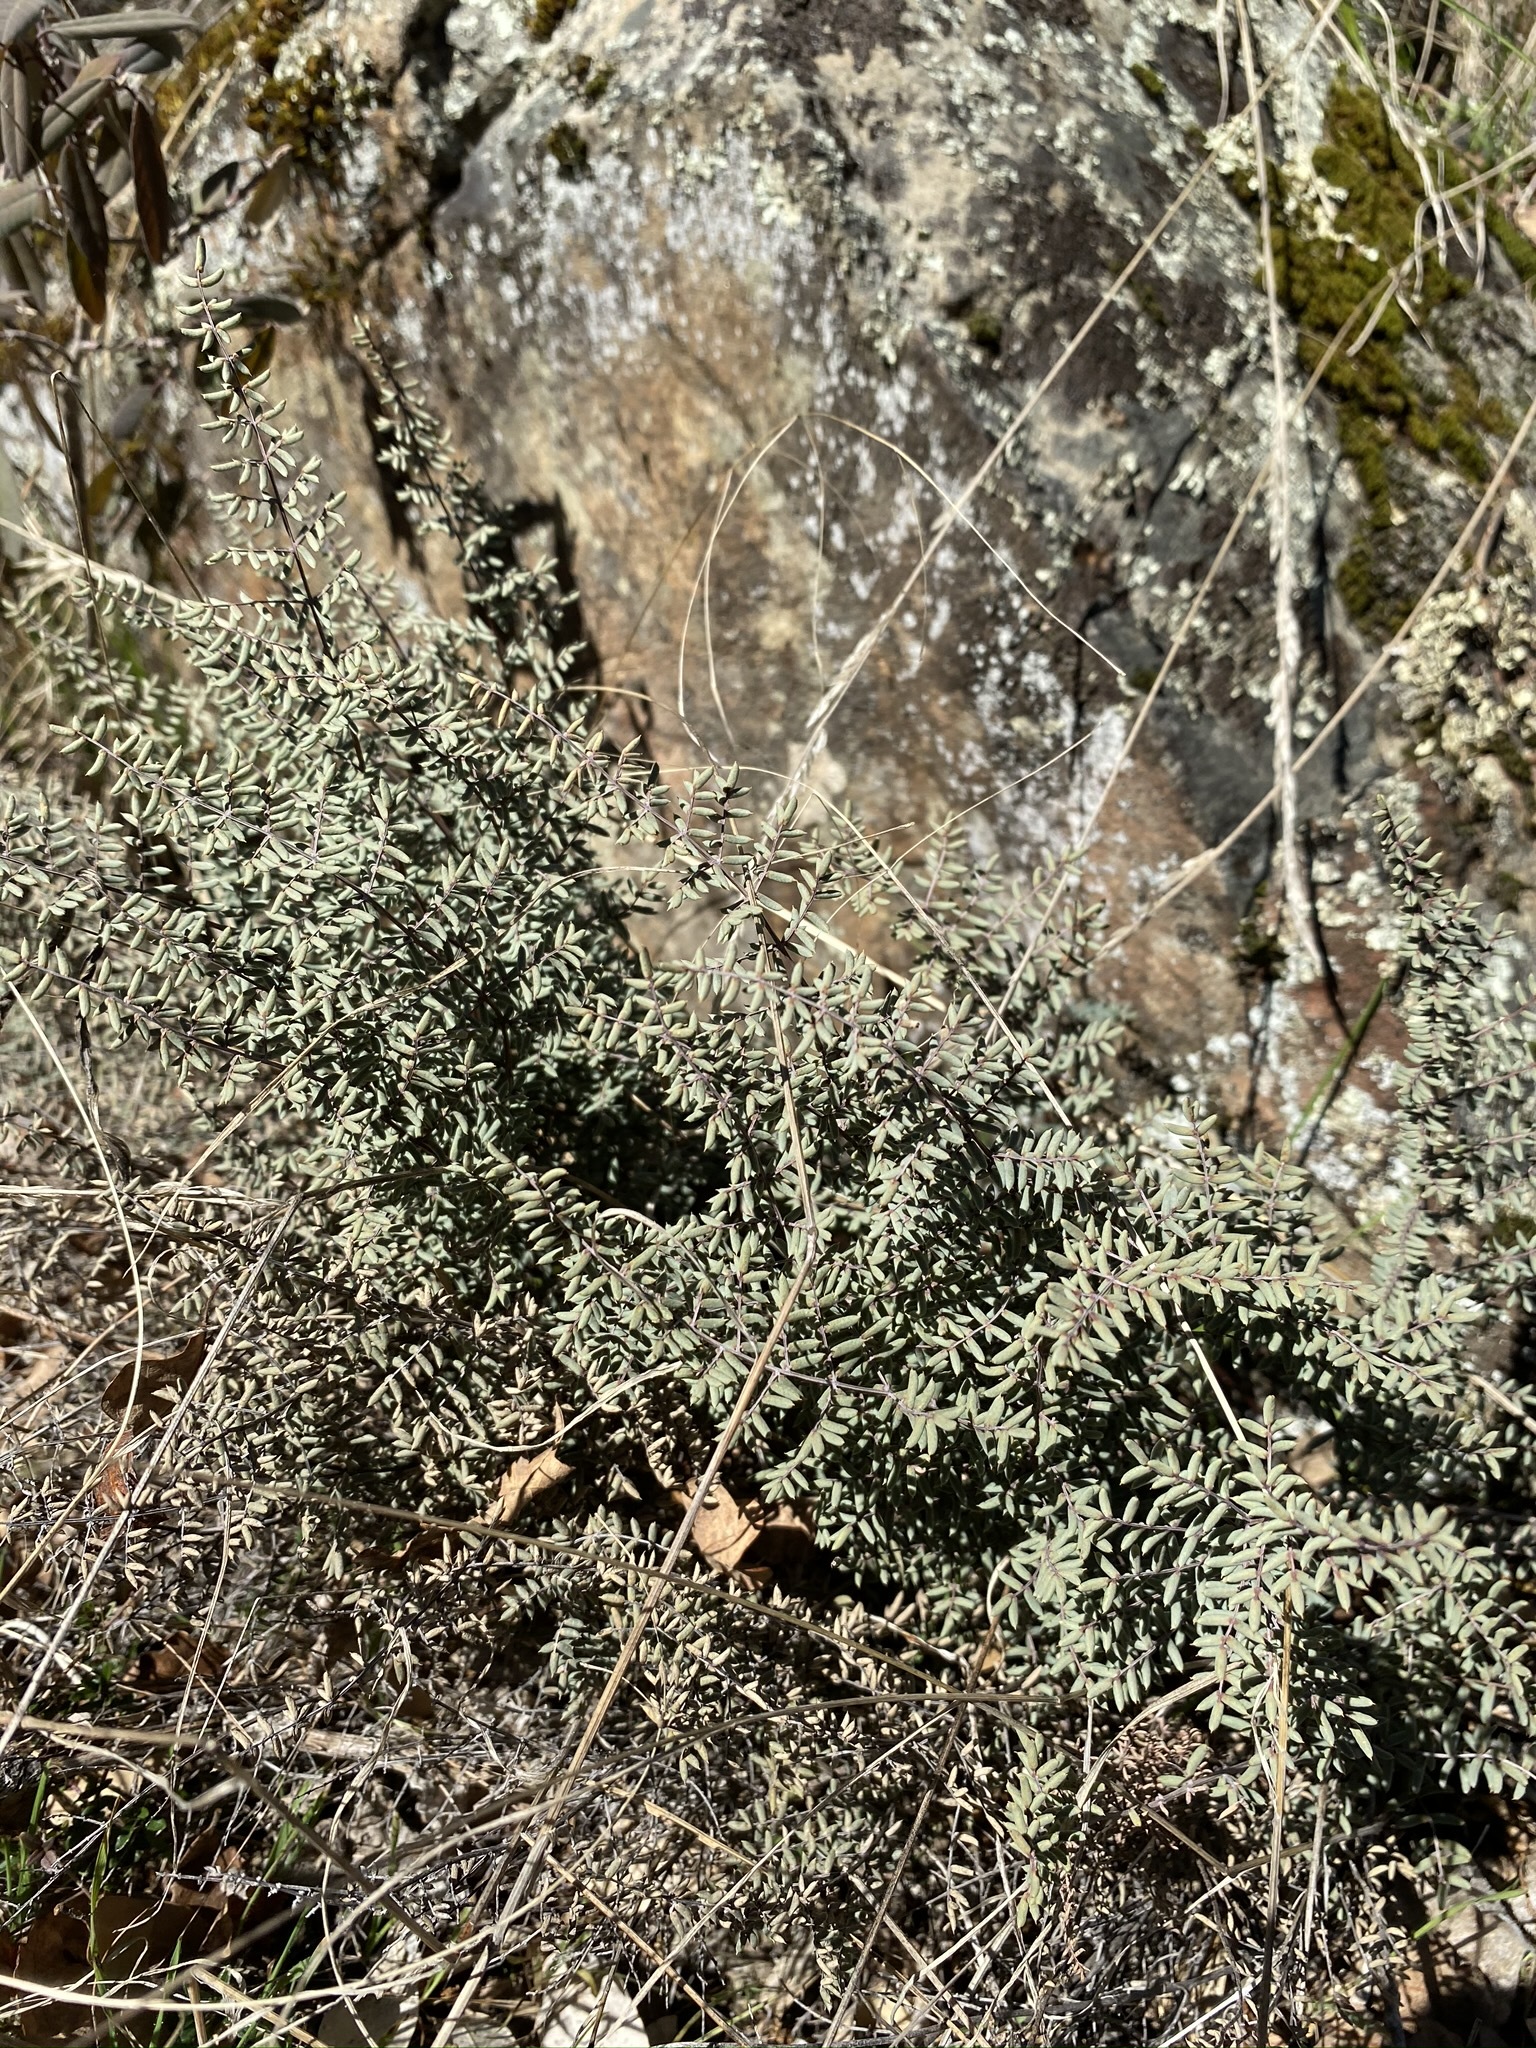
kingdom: Plantae
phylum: Tracheophyta
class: Polypodiopsida
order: Polypodiales
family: Pteridaceae
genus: Pellaea
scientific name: Pellaea mucronata
